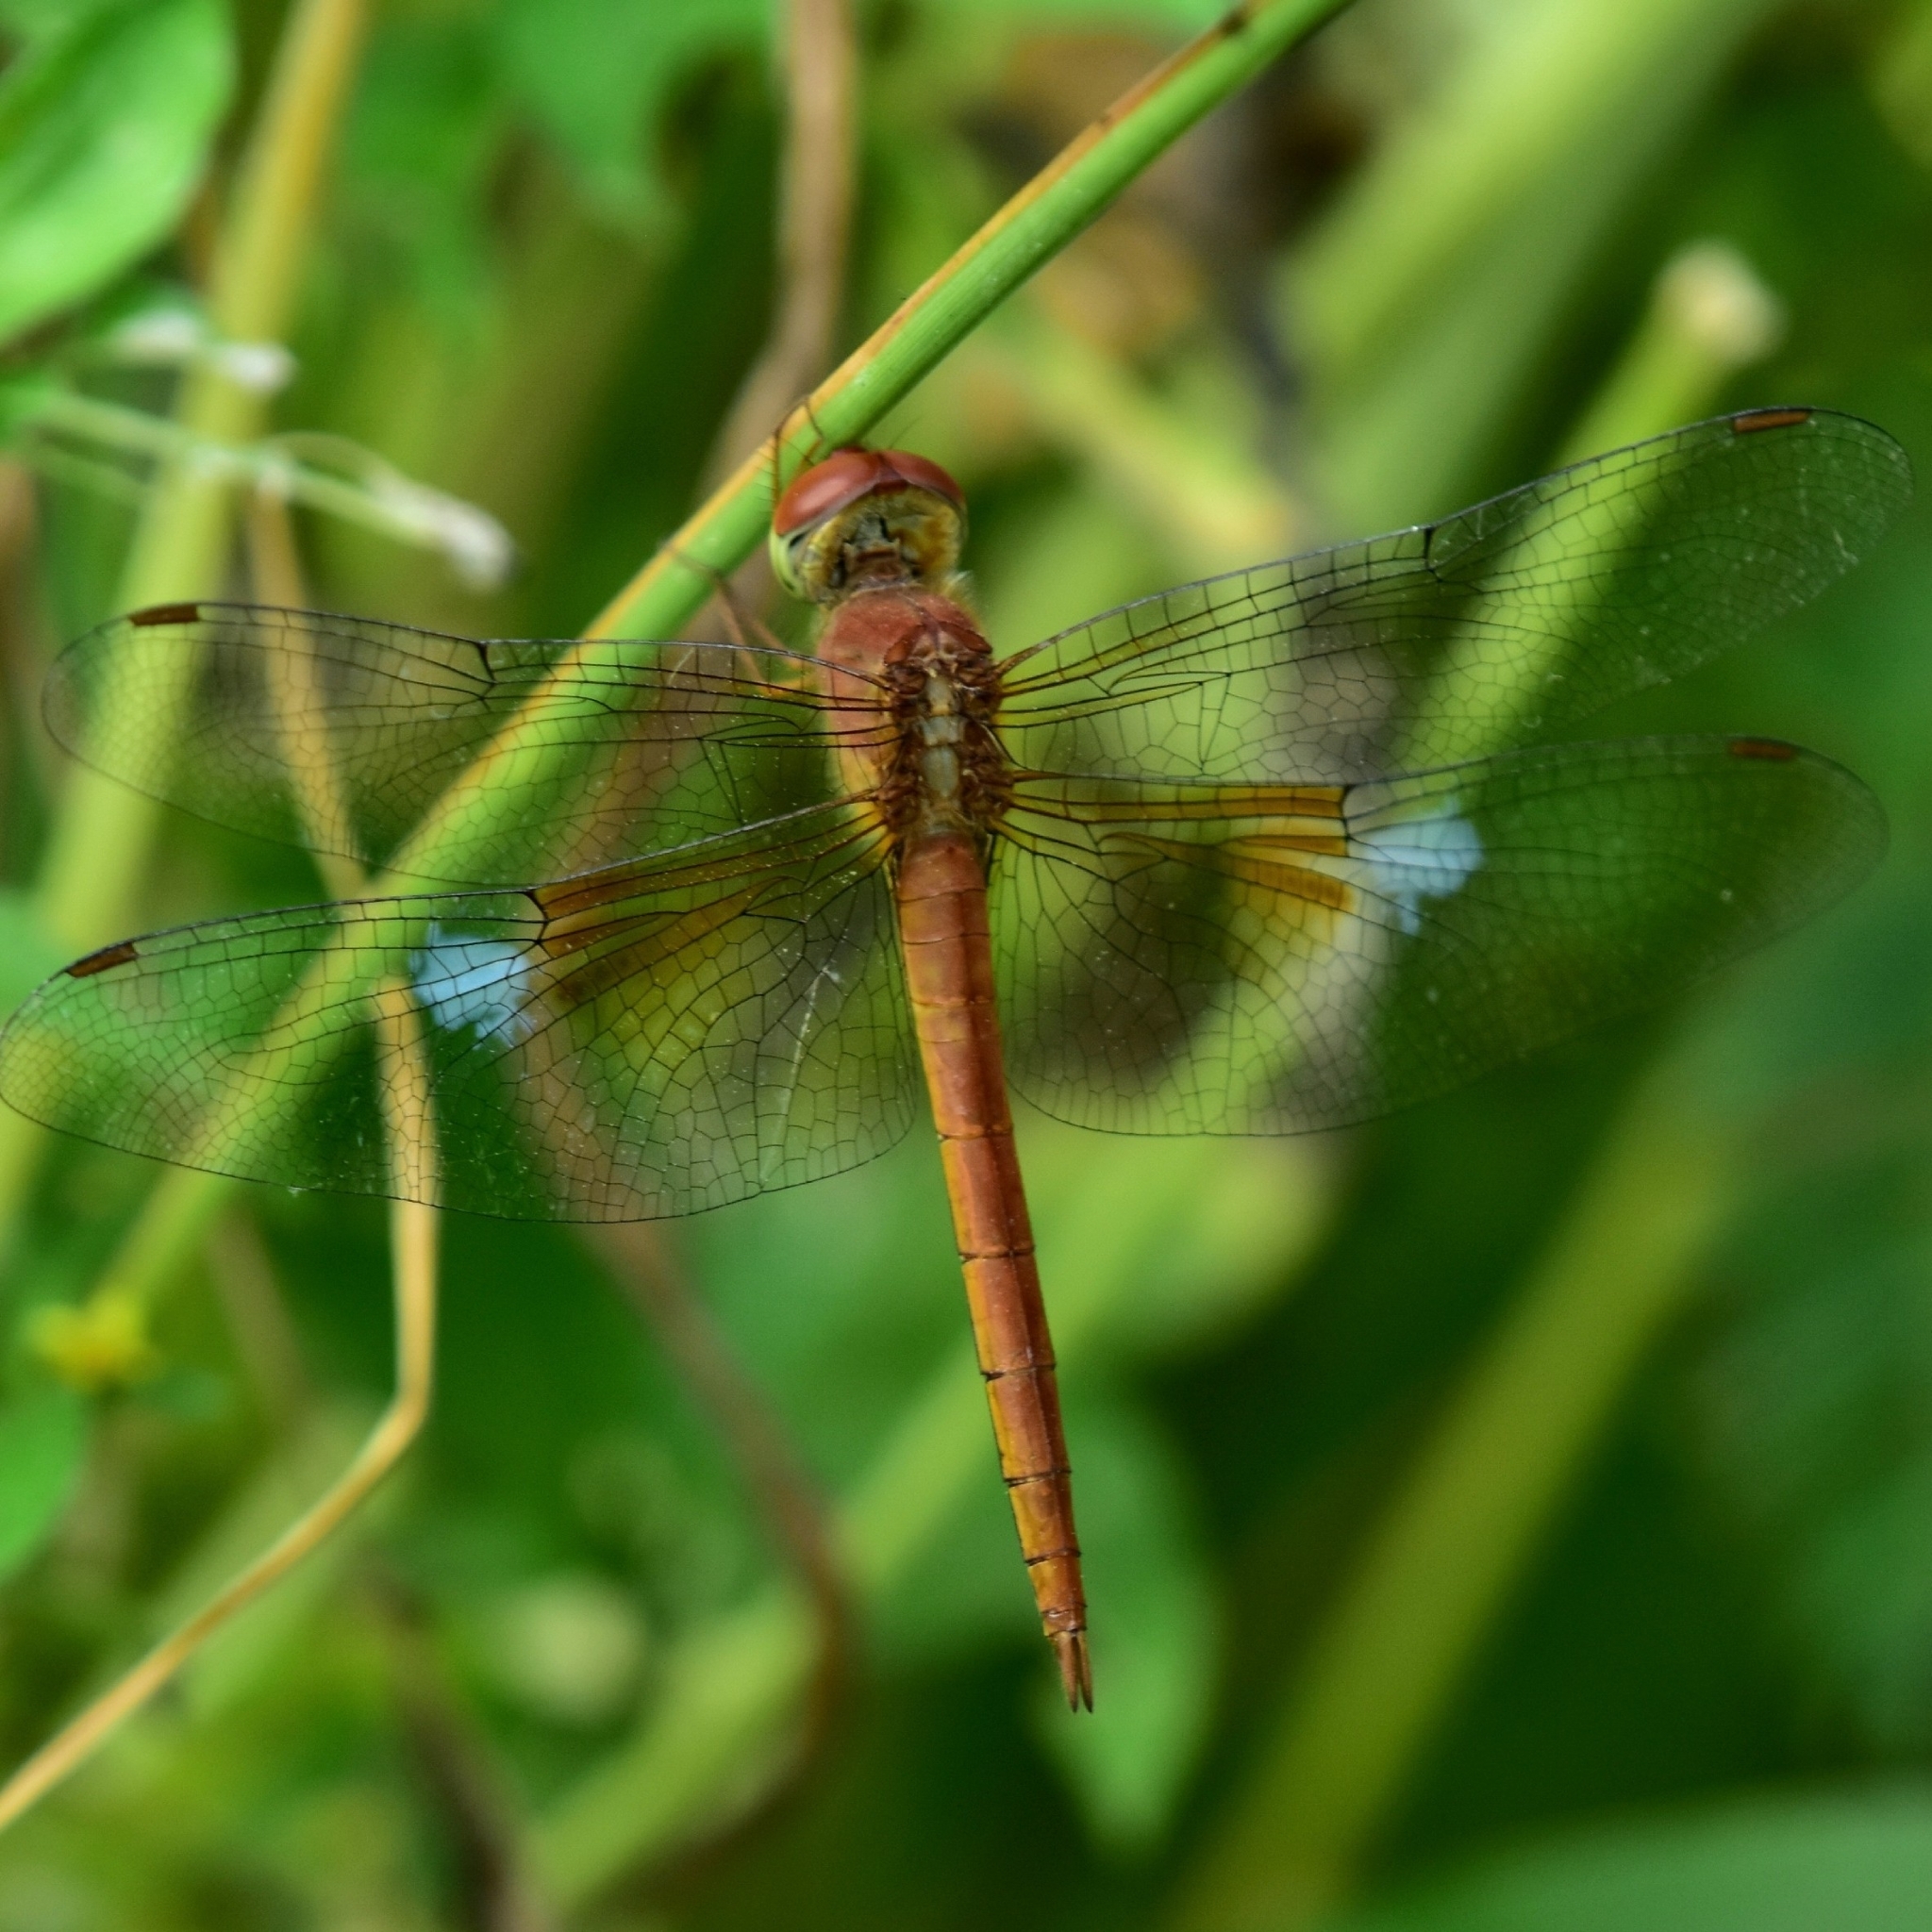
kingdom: Animalia
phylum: Arthropoda
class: Insecta
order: Odonata
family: Libellulidae
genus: Tholymis
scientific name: Tholymis tillarga
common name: Coral-tailed cloud wing
